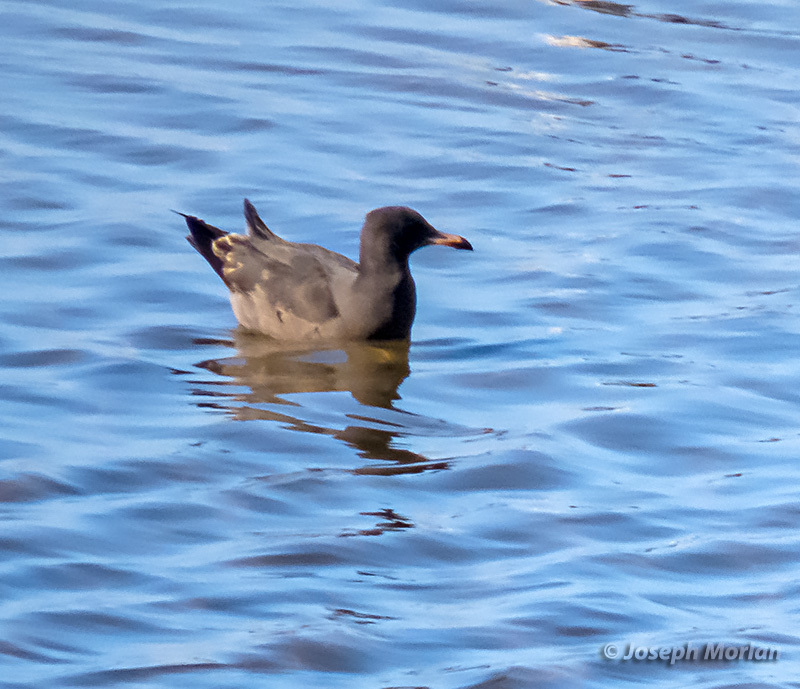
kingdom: Animalia
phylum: Chordata
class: Aves
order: Charadriiformes
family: Laridae
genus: Larus
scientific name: Larus heermanni
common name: Heermann's gull
